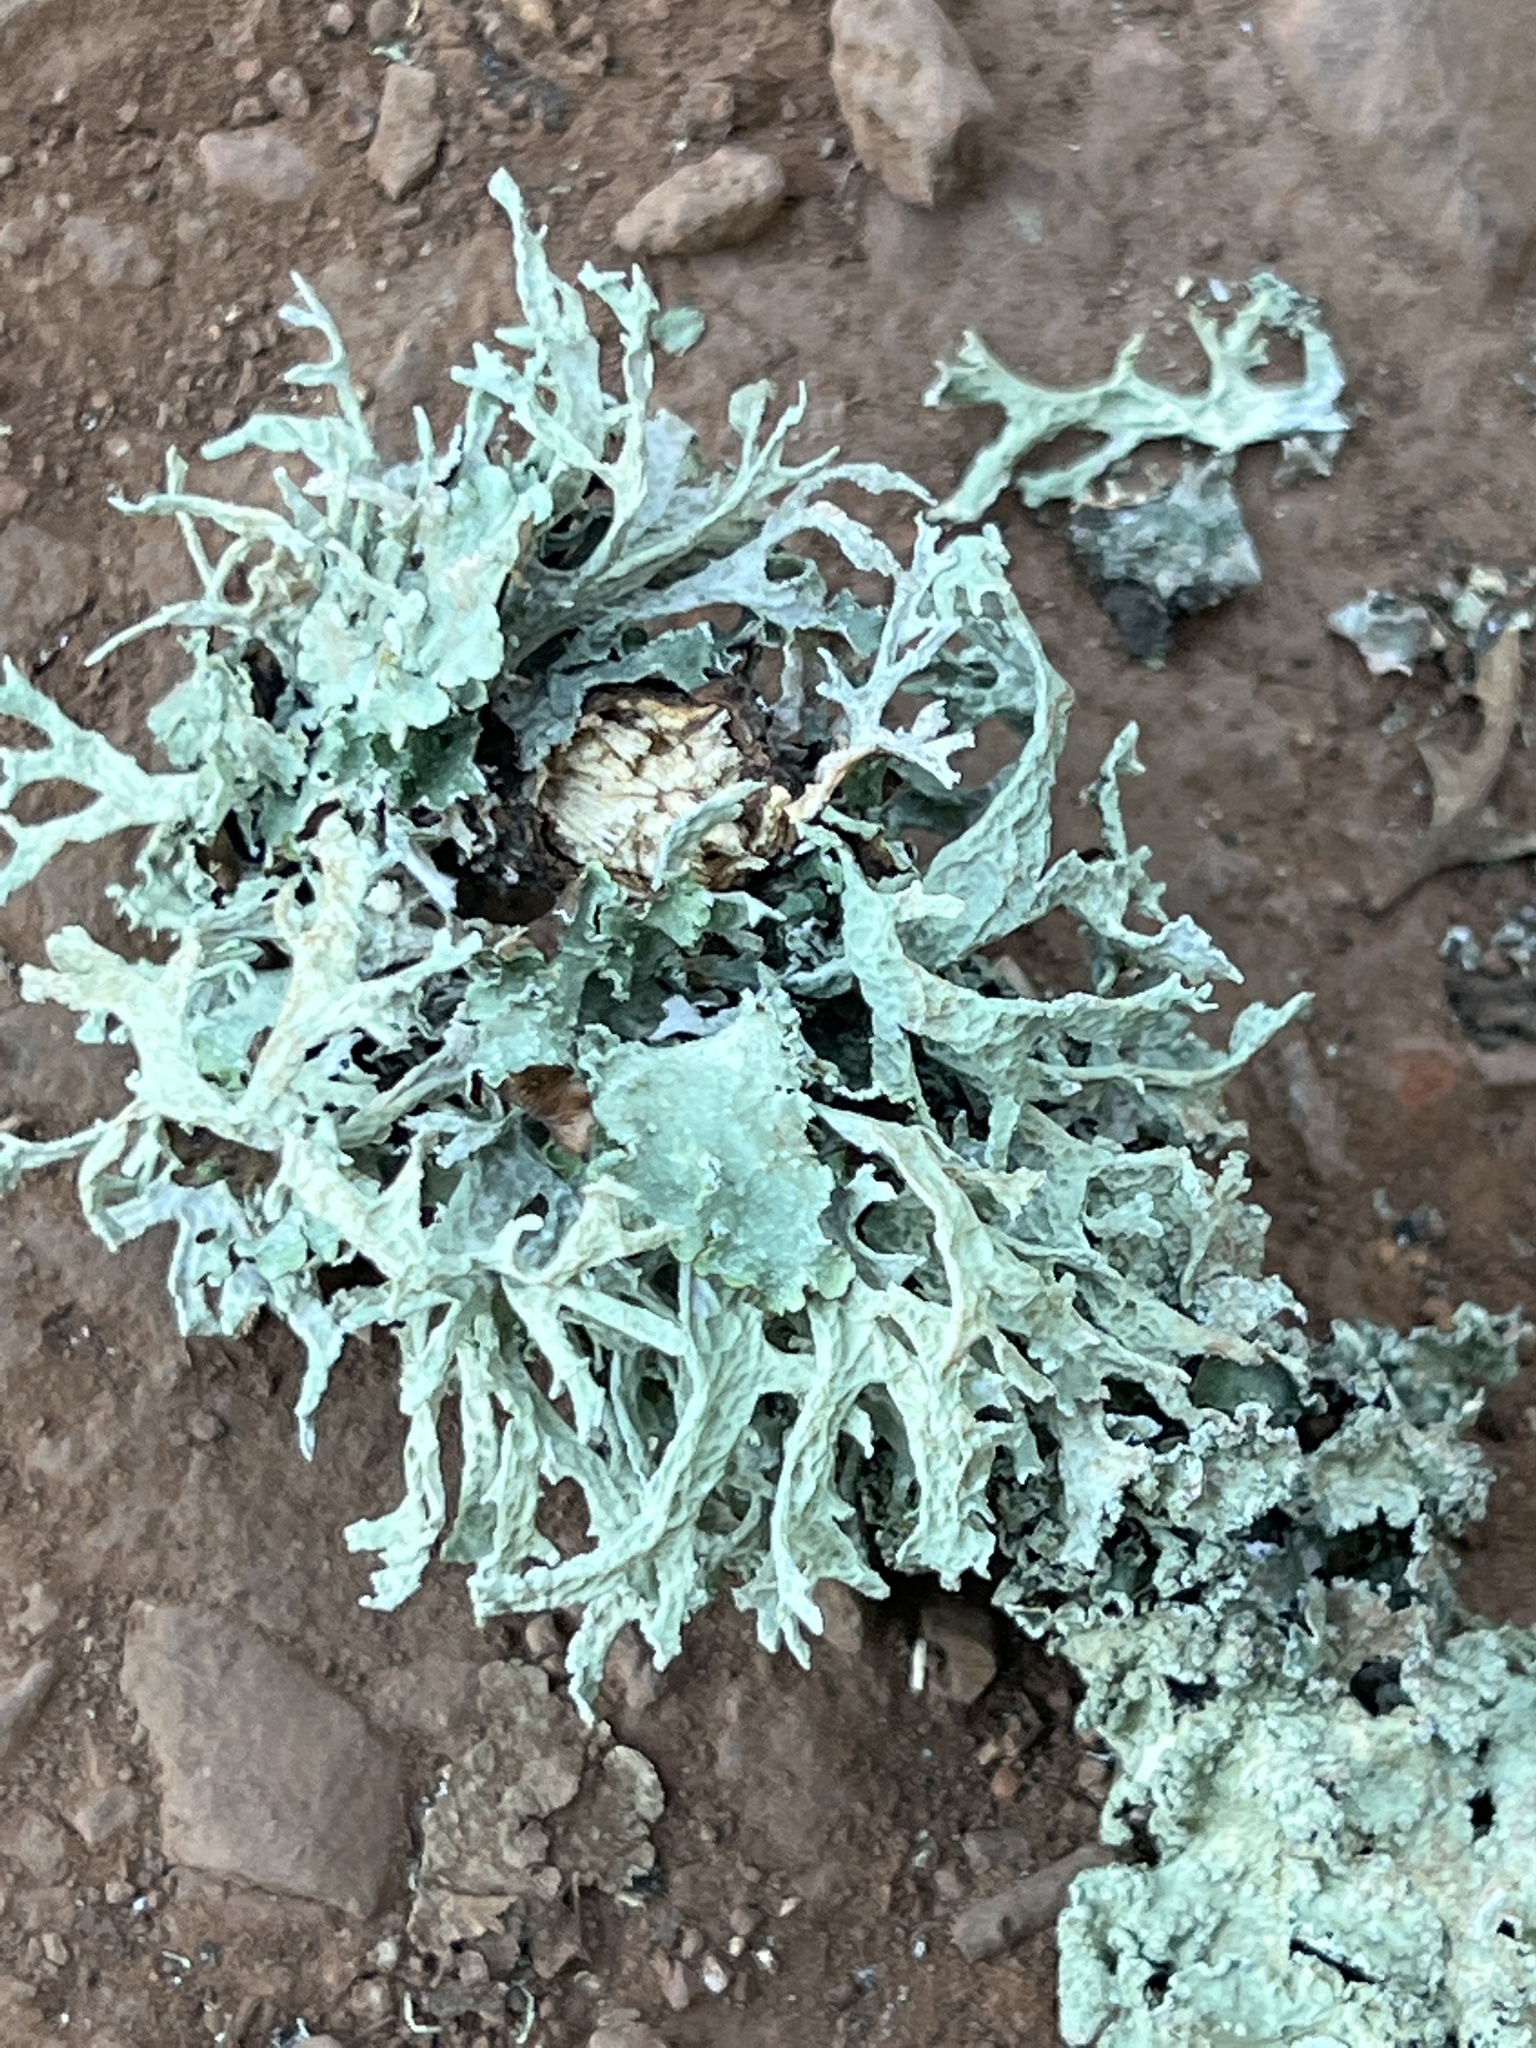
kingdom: Fungi
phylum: Ascomycota
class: Lecanoromycetes
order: Lecanorales
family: Parmeliaceae
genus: Evernia
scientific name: Evernia prunastri
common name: Oak moss
